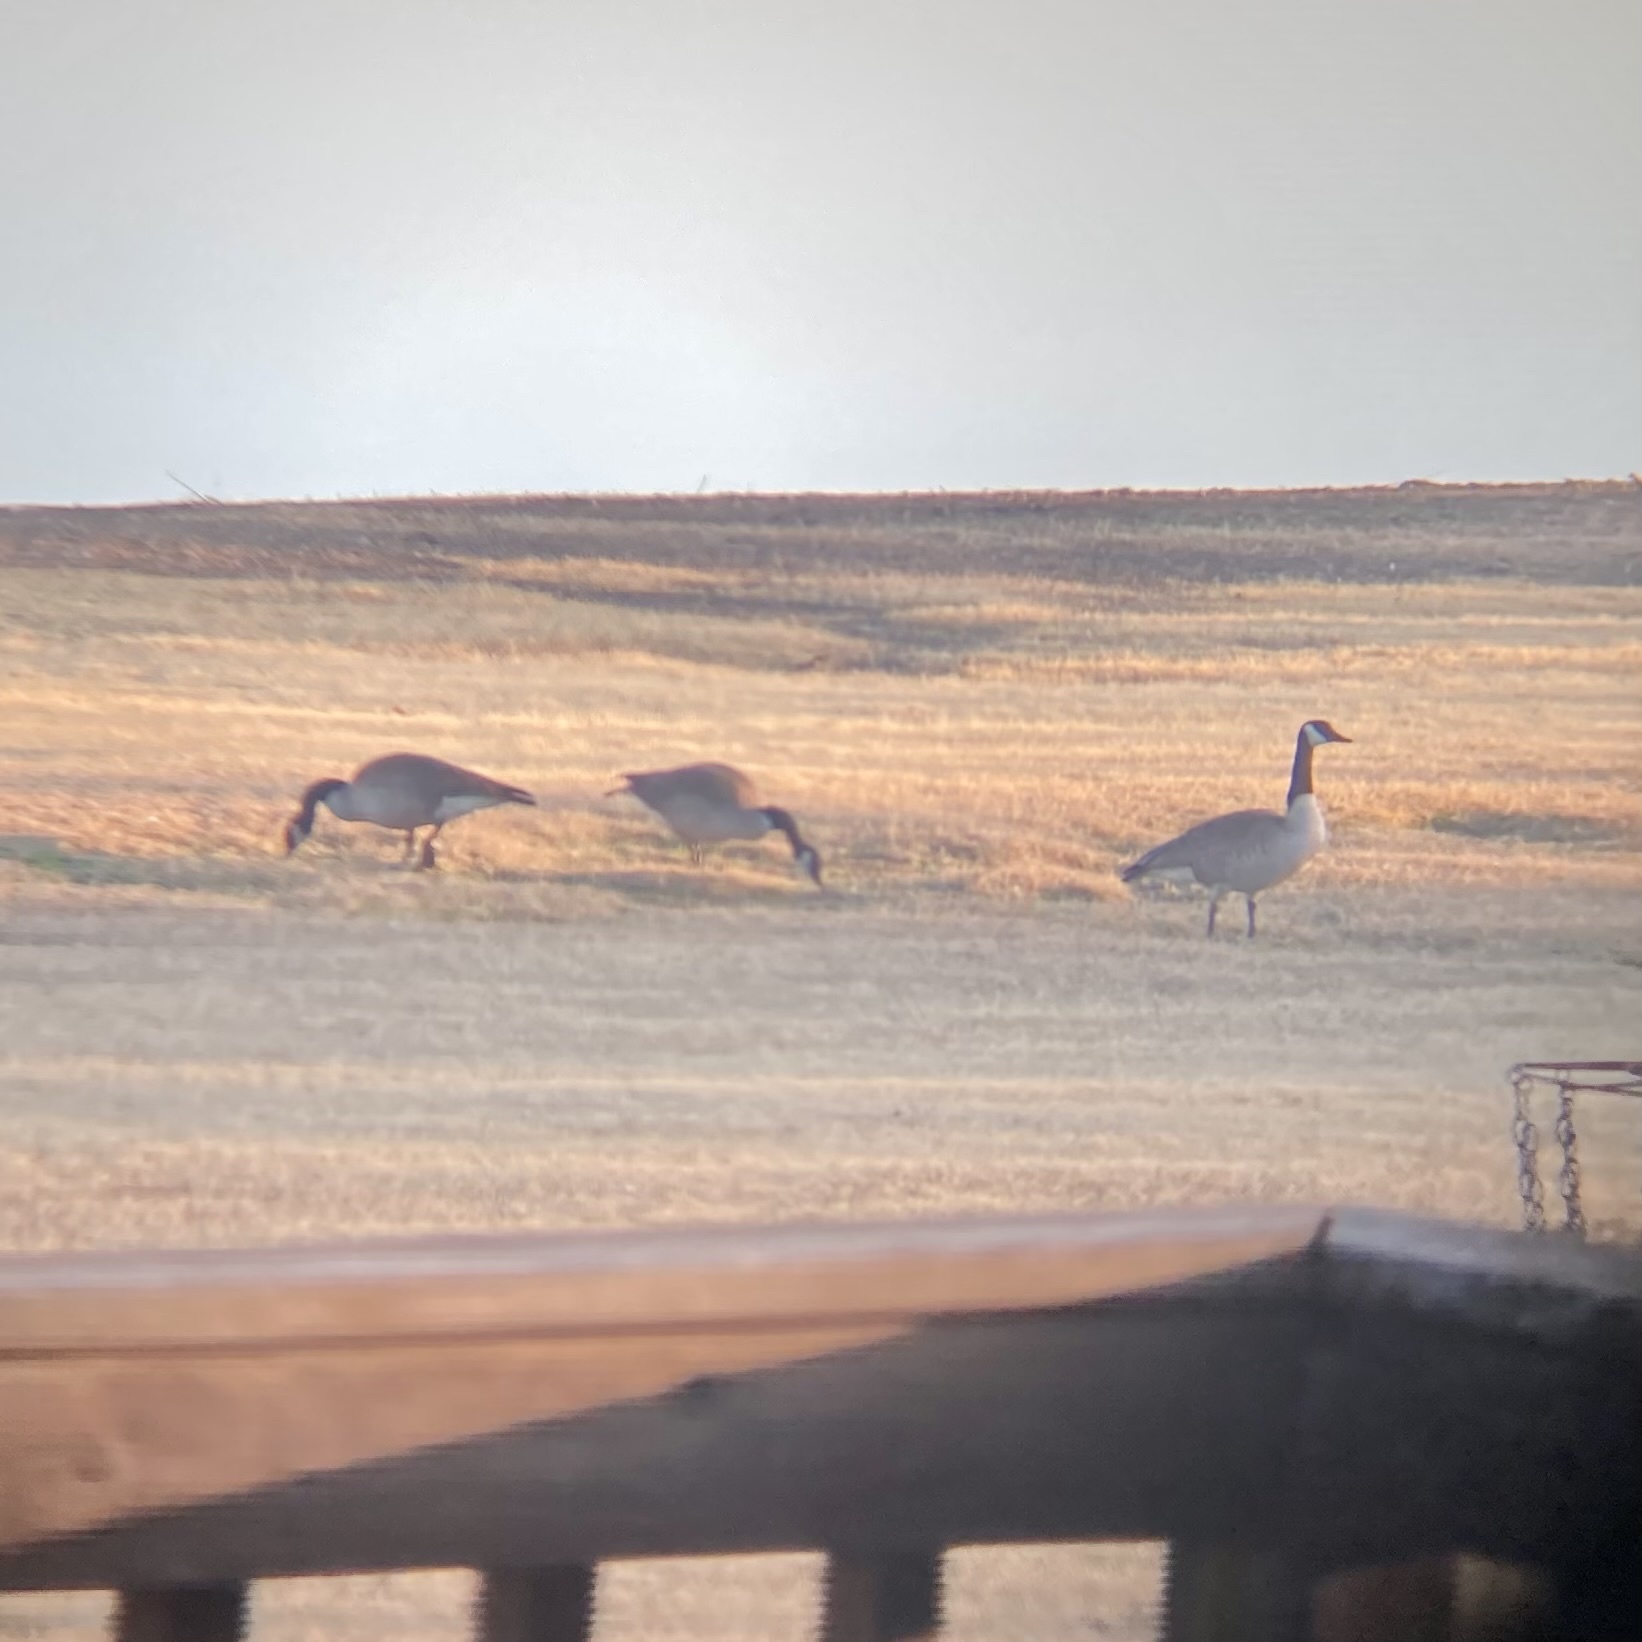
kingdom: Animalia
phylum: Chordata
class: Aves
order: Anseriformes
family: Anatidae
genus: Branta
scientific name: Branta canadensis
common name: Canada goose
